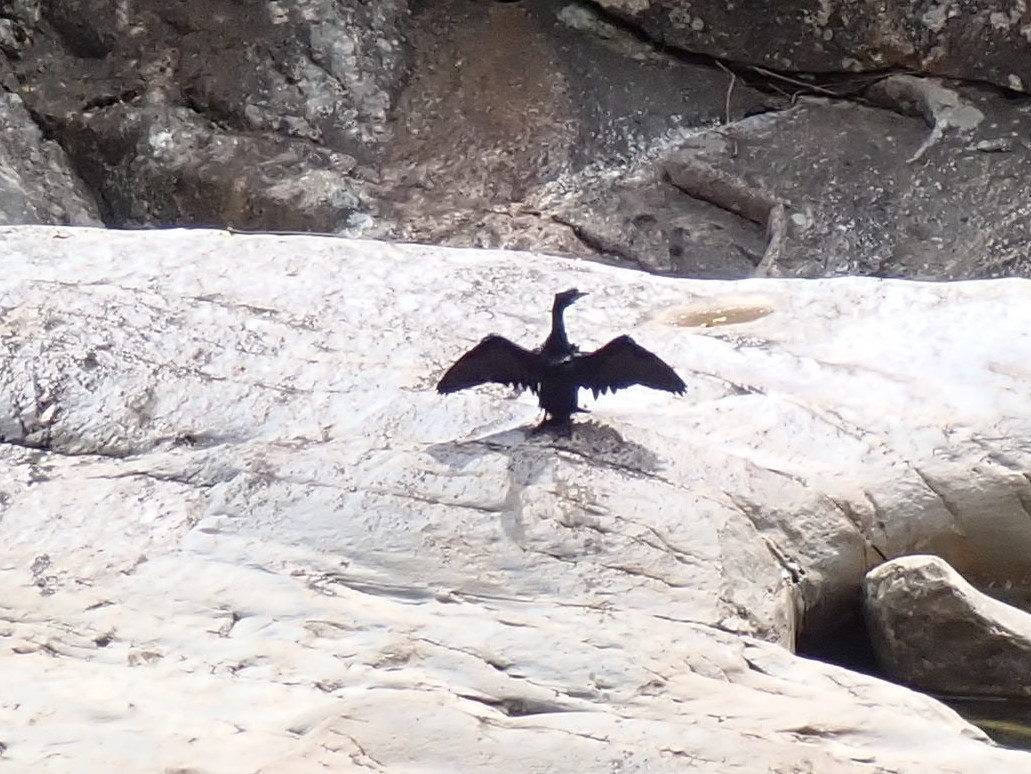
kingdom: Animalia
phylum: Chordata
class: Aves
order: Suliformes
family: Phalacrocoracidae
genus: Microcarbo
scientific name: Microcarbo niger
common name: Little cormorant
